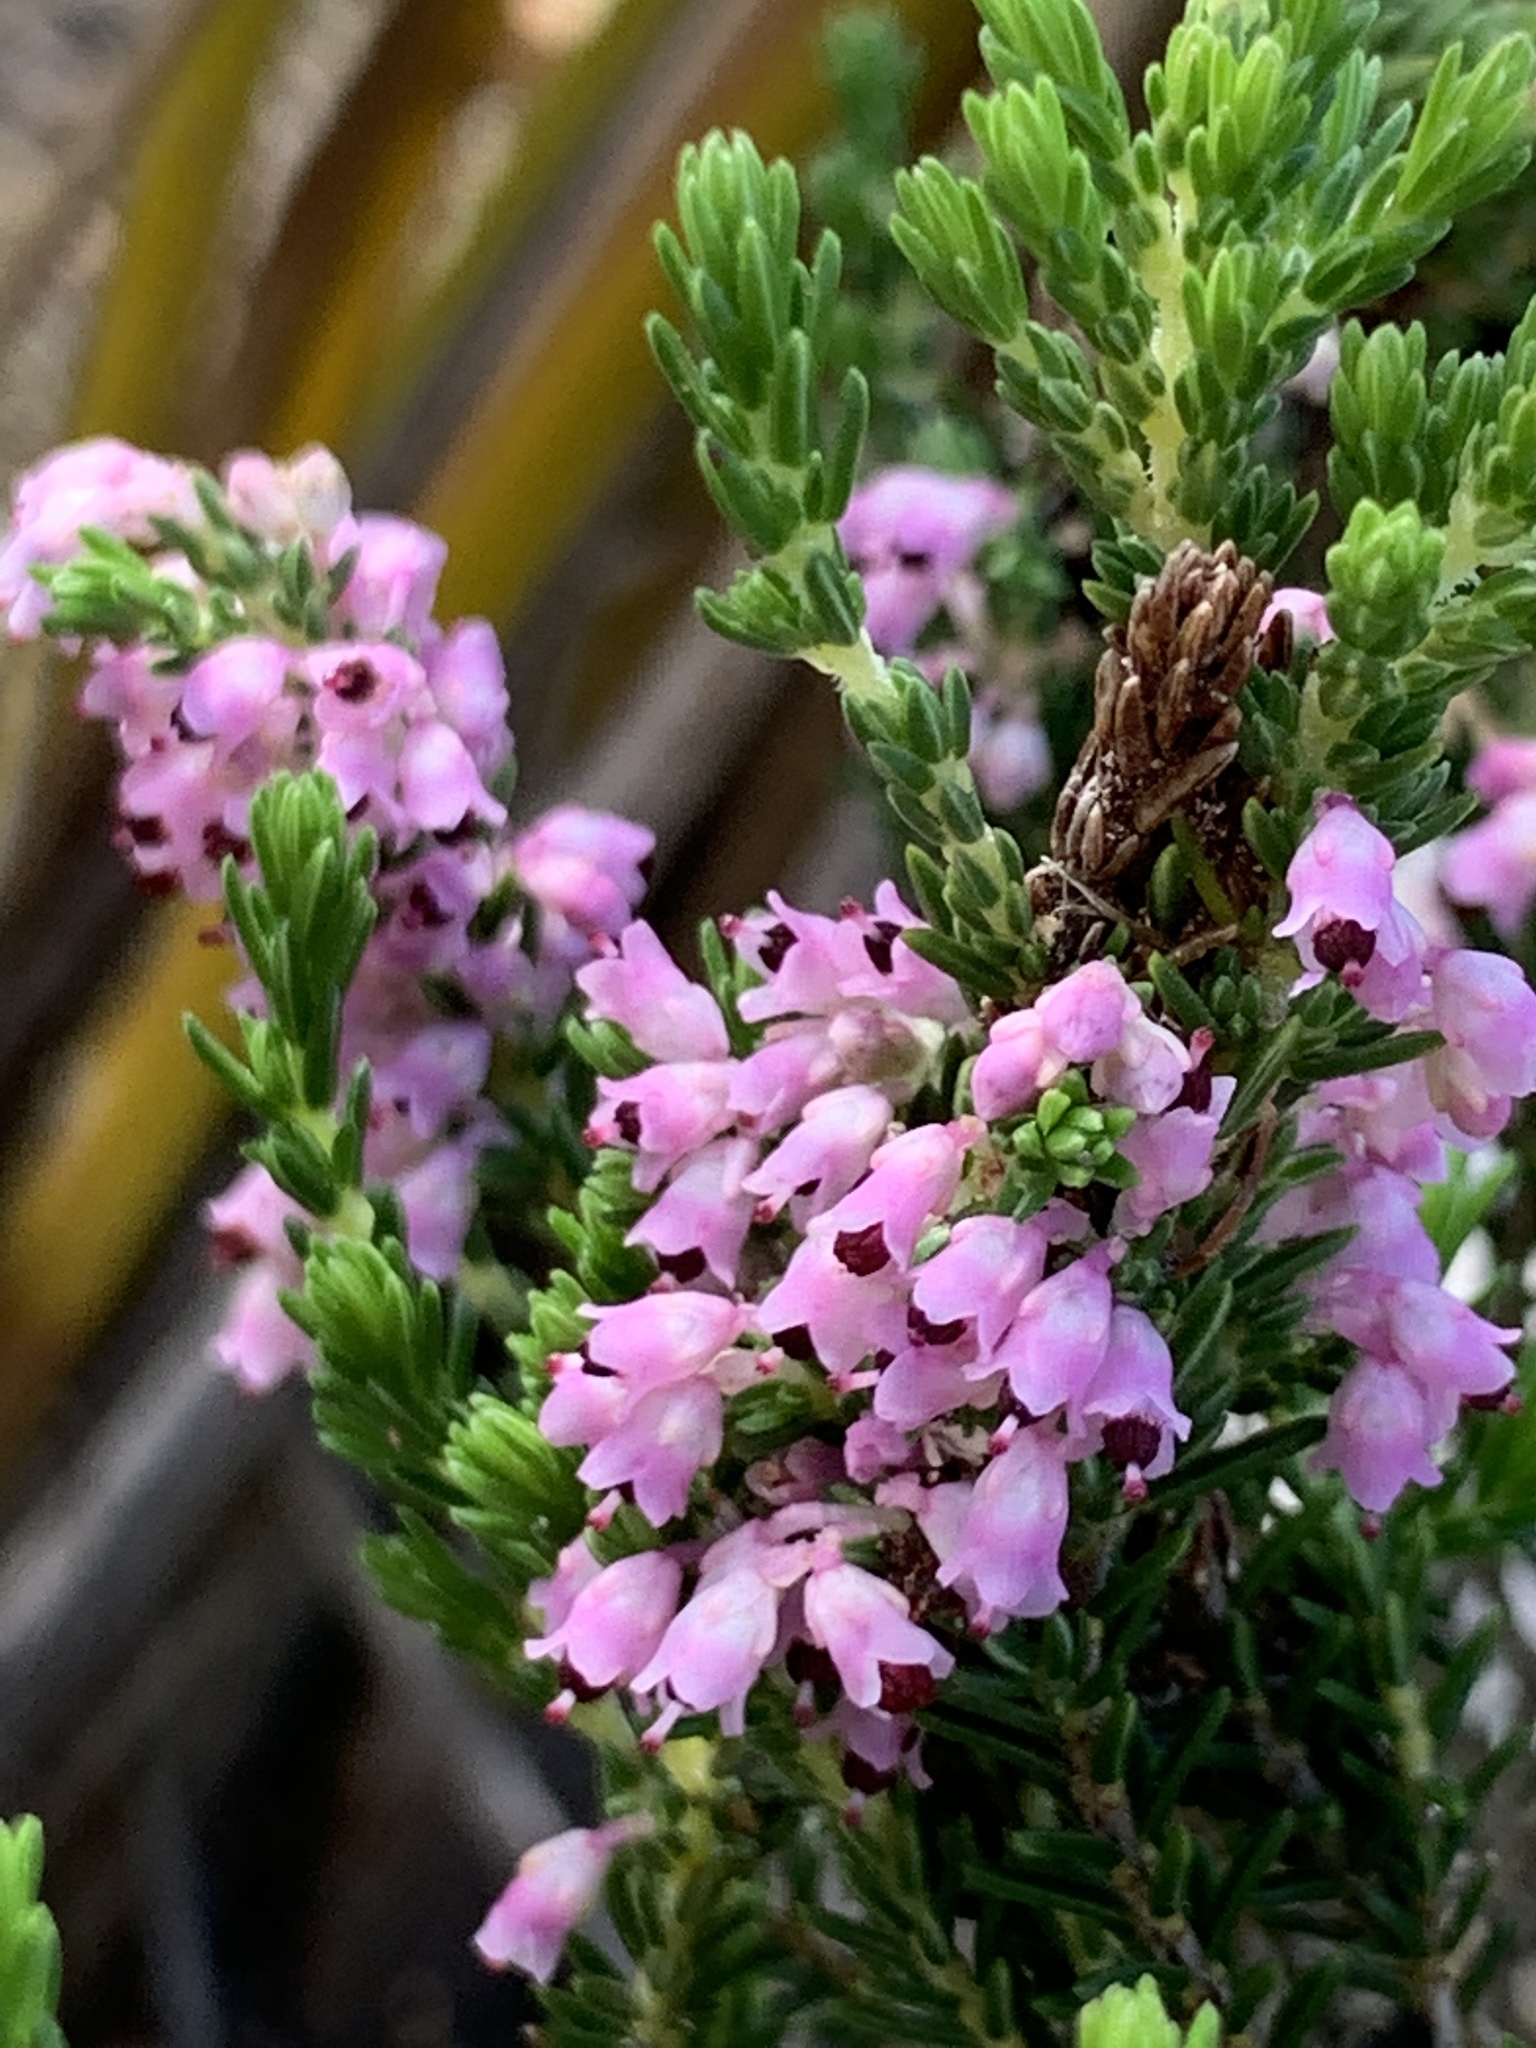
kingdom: Plantae
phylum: Tracheophyta
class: Magnoliopsida
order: Ericales
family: Ericaceae
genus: Erica
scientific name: Erica paniculata
